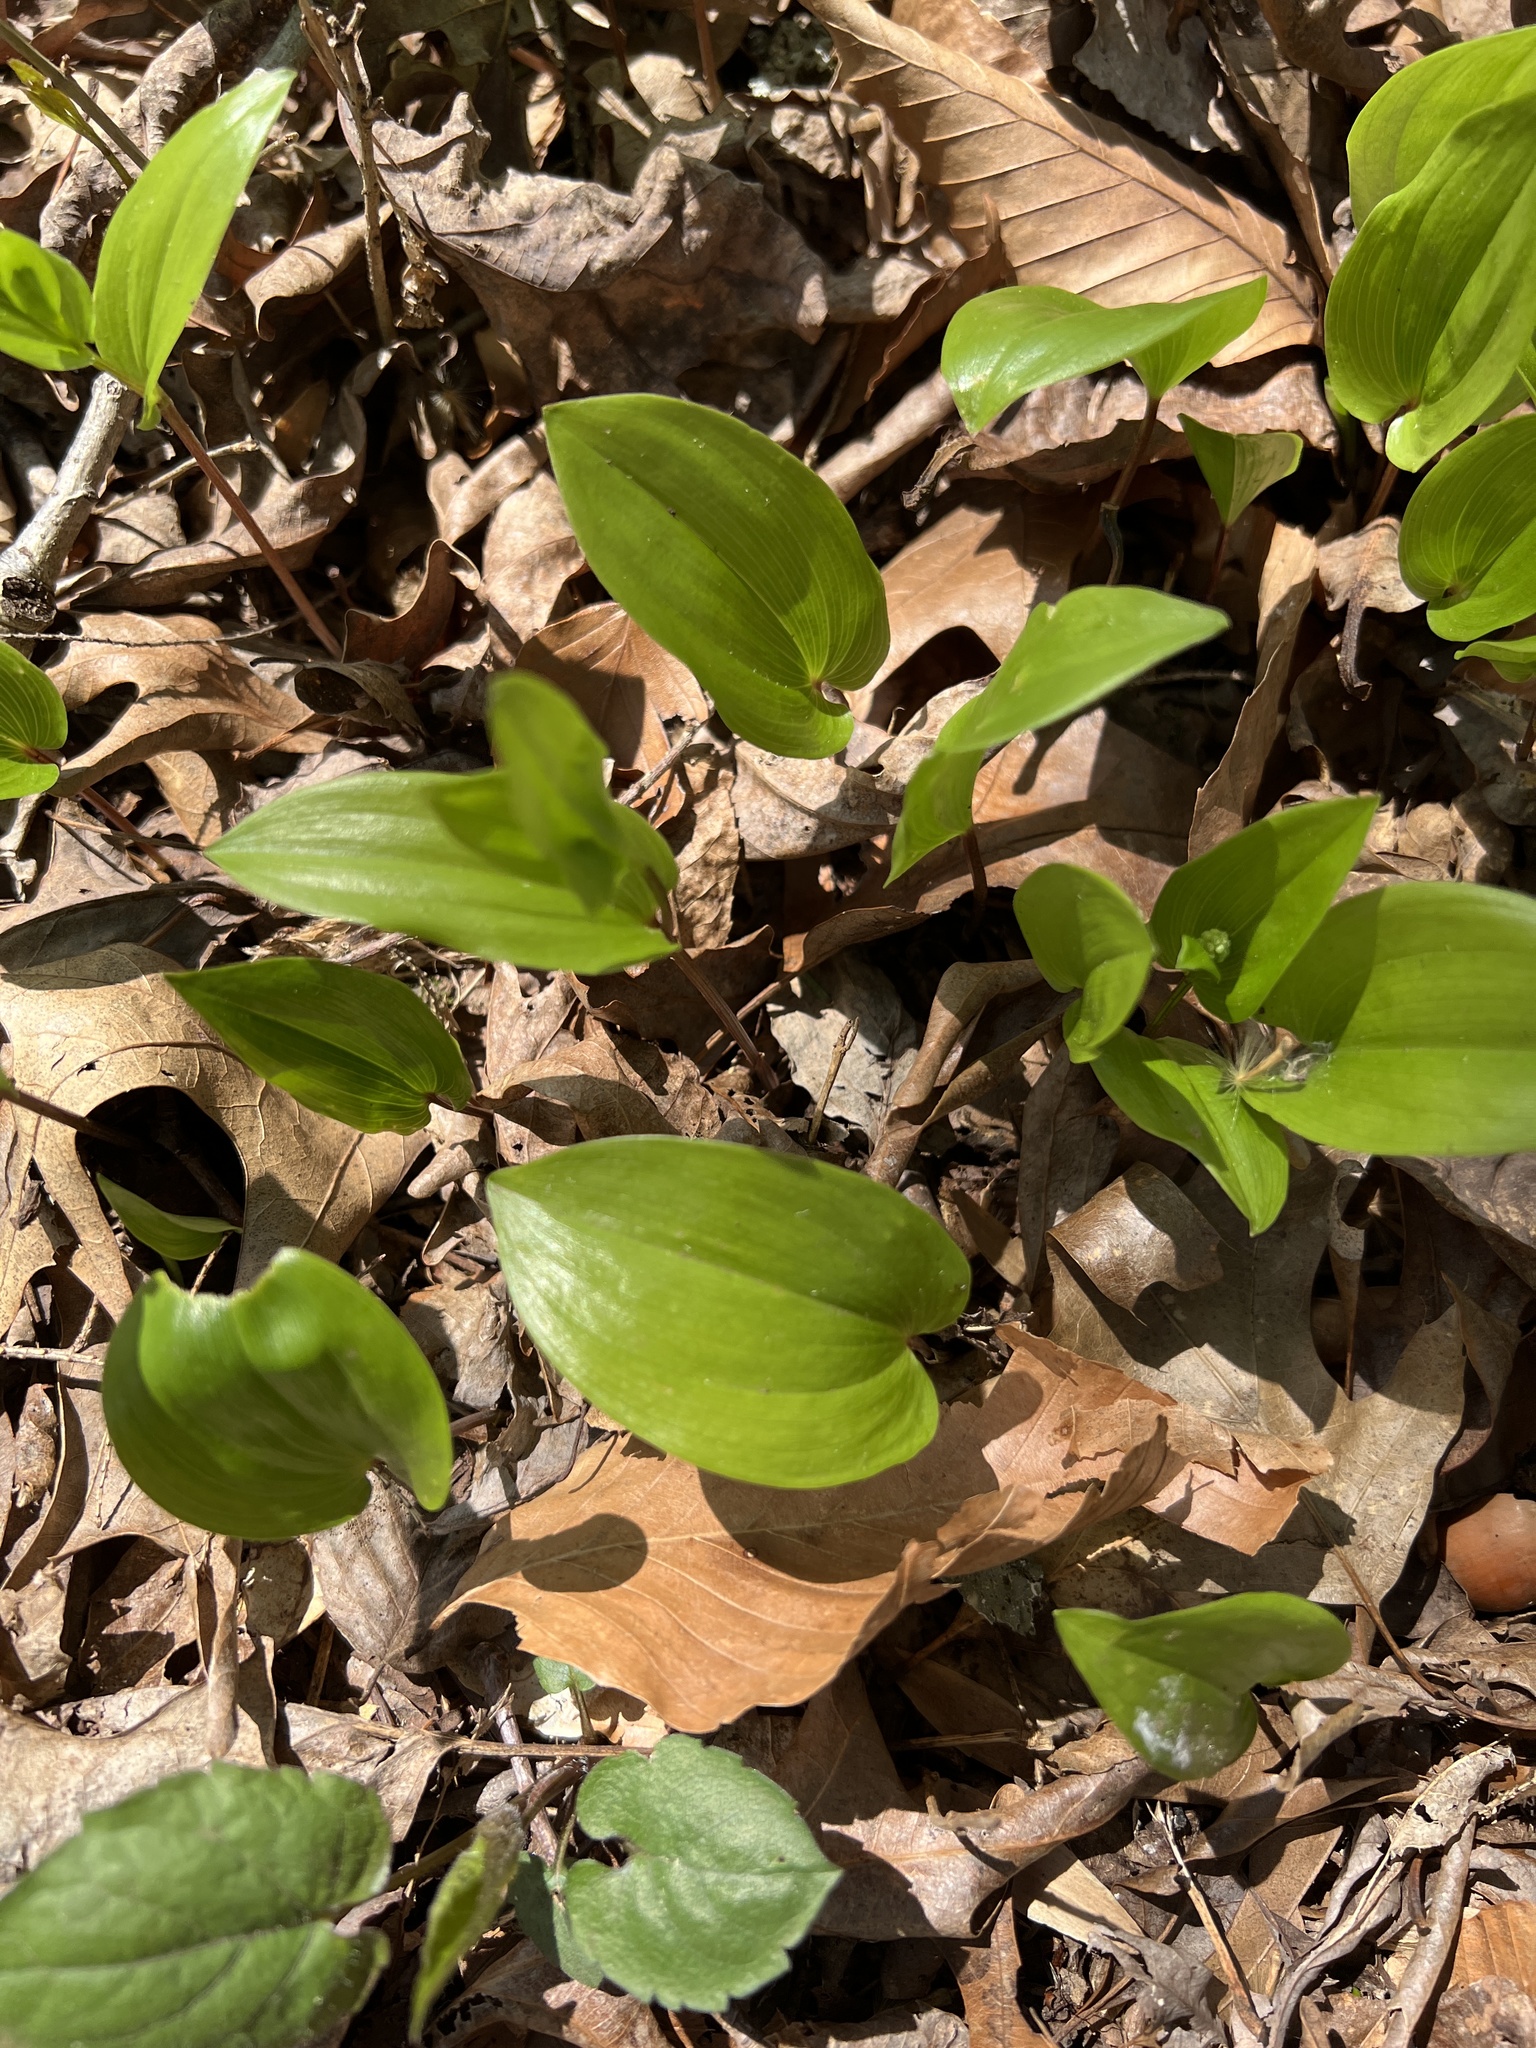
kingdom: Plantae
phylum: Tracheophyta
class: Liliopsida
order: Asparagales
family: Asparagaceae
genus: Maianthemum
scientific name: Maianthemum canadense
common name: False lily-of-the-valley
